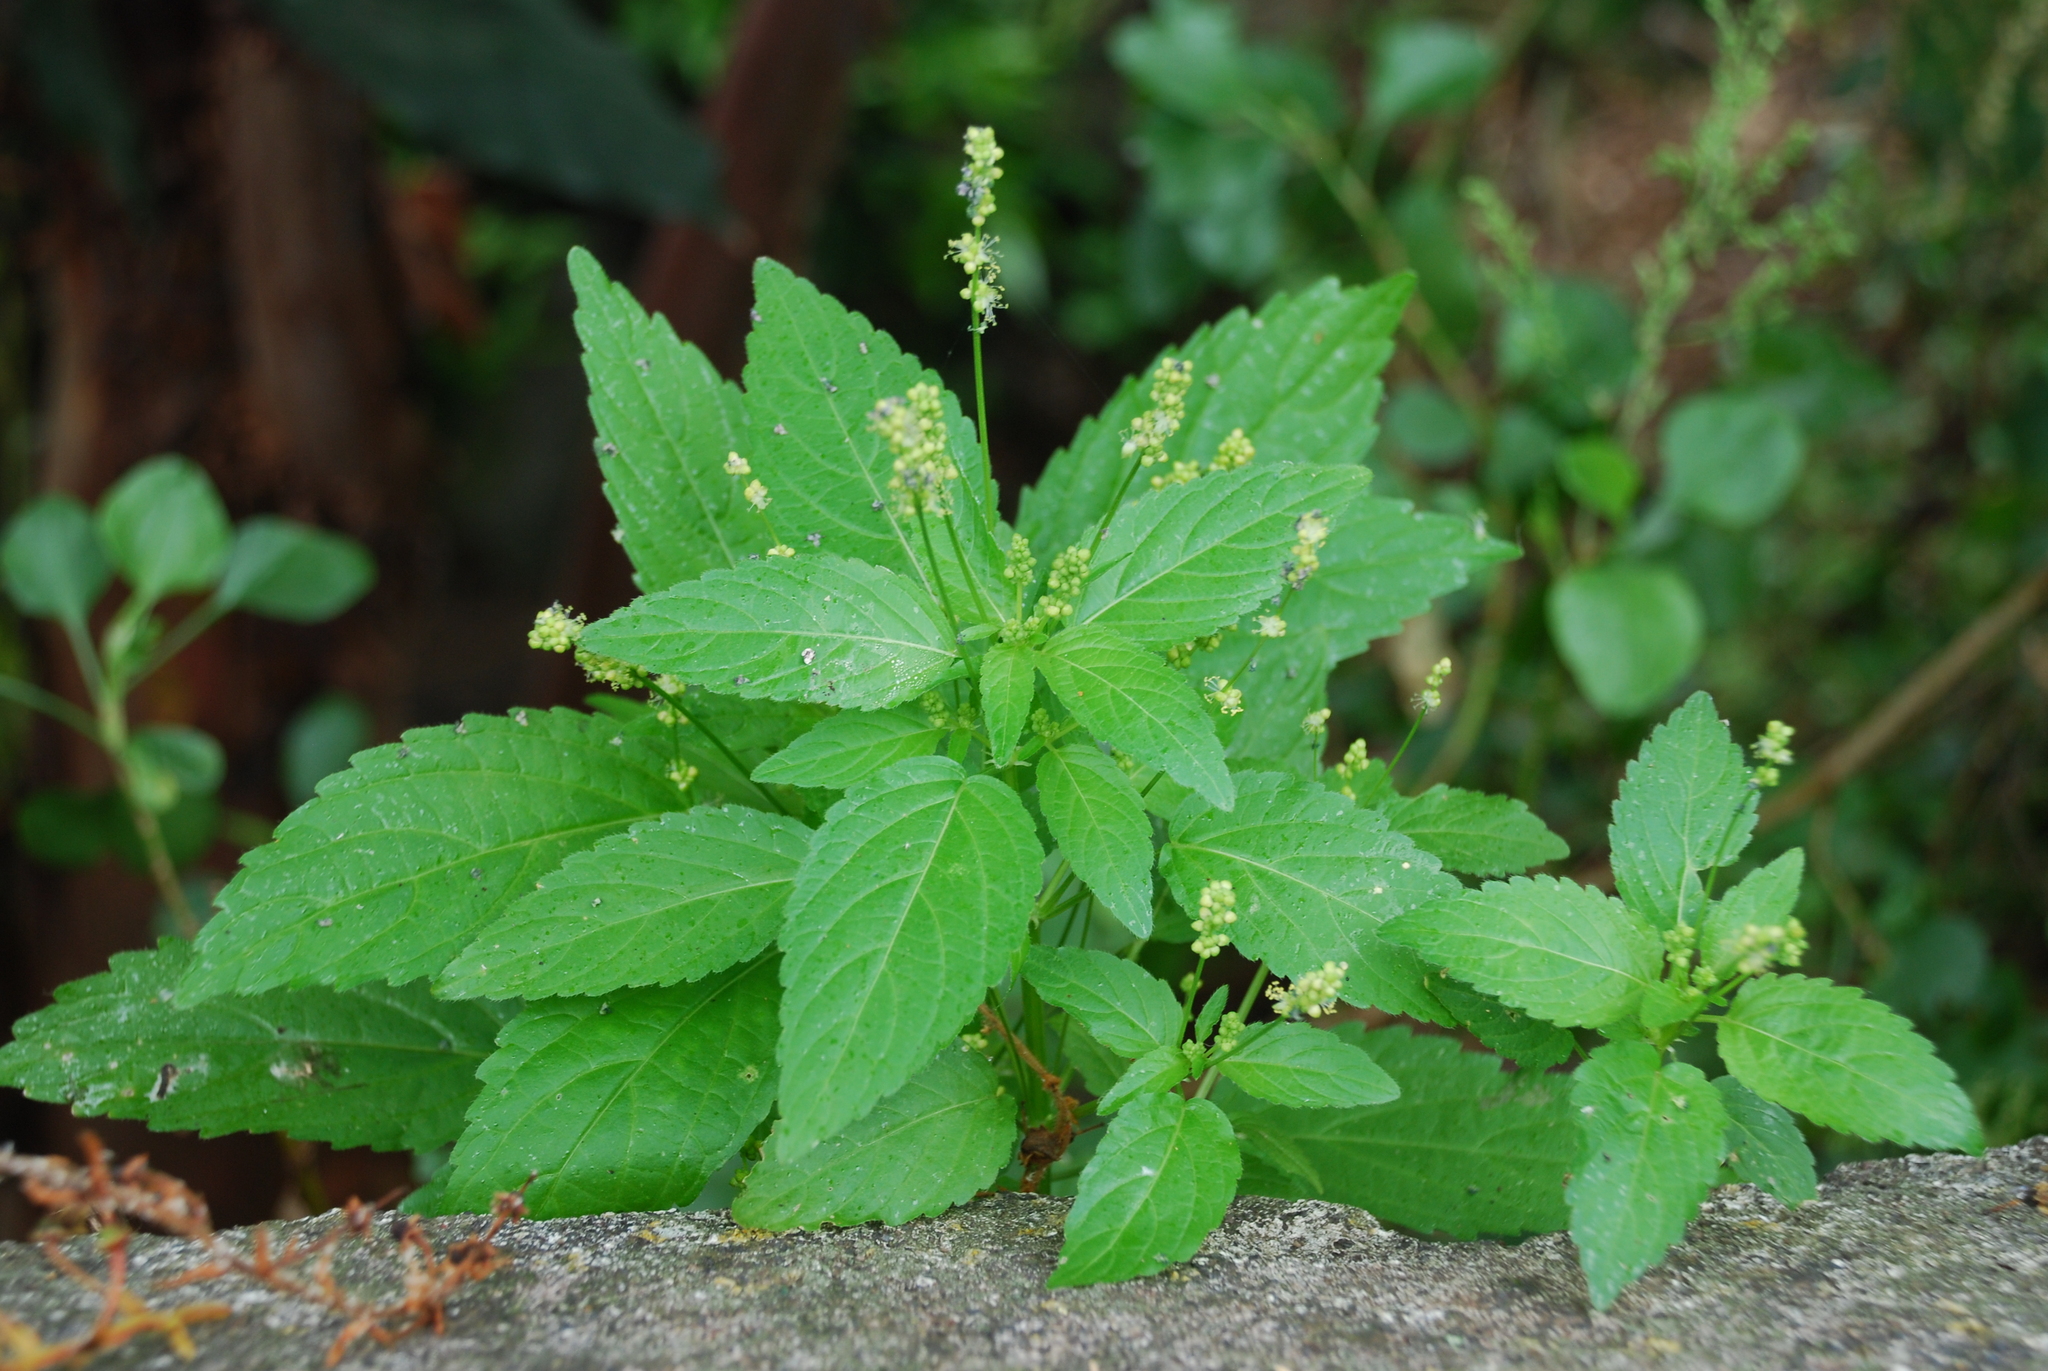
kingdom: Plantae
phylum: Tracheophyta
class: Magnoliopsida
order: Malpighiales
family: Euphorbiaceae
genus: Mercurialis
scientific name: Mercurialis annua
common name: Annual mercury
